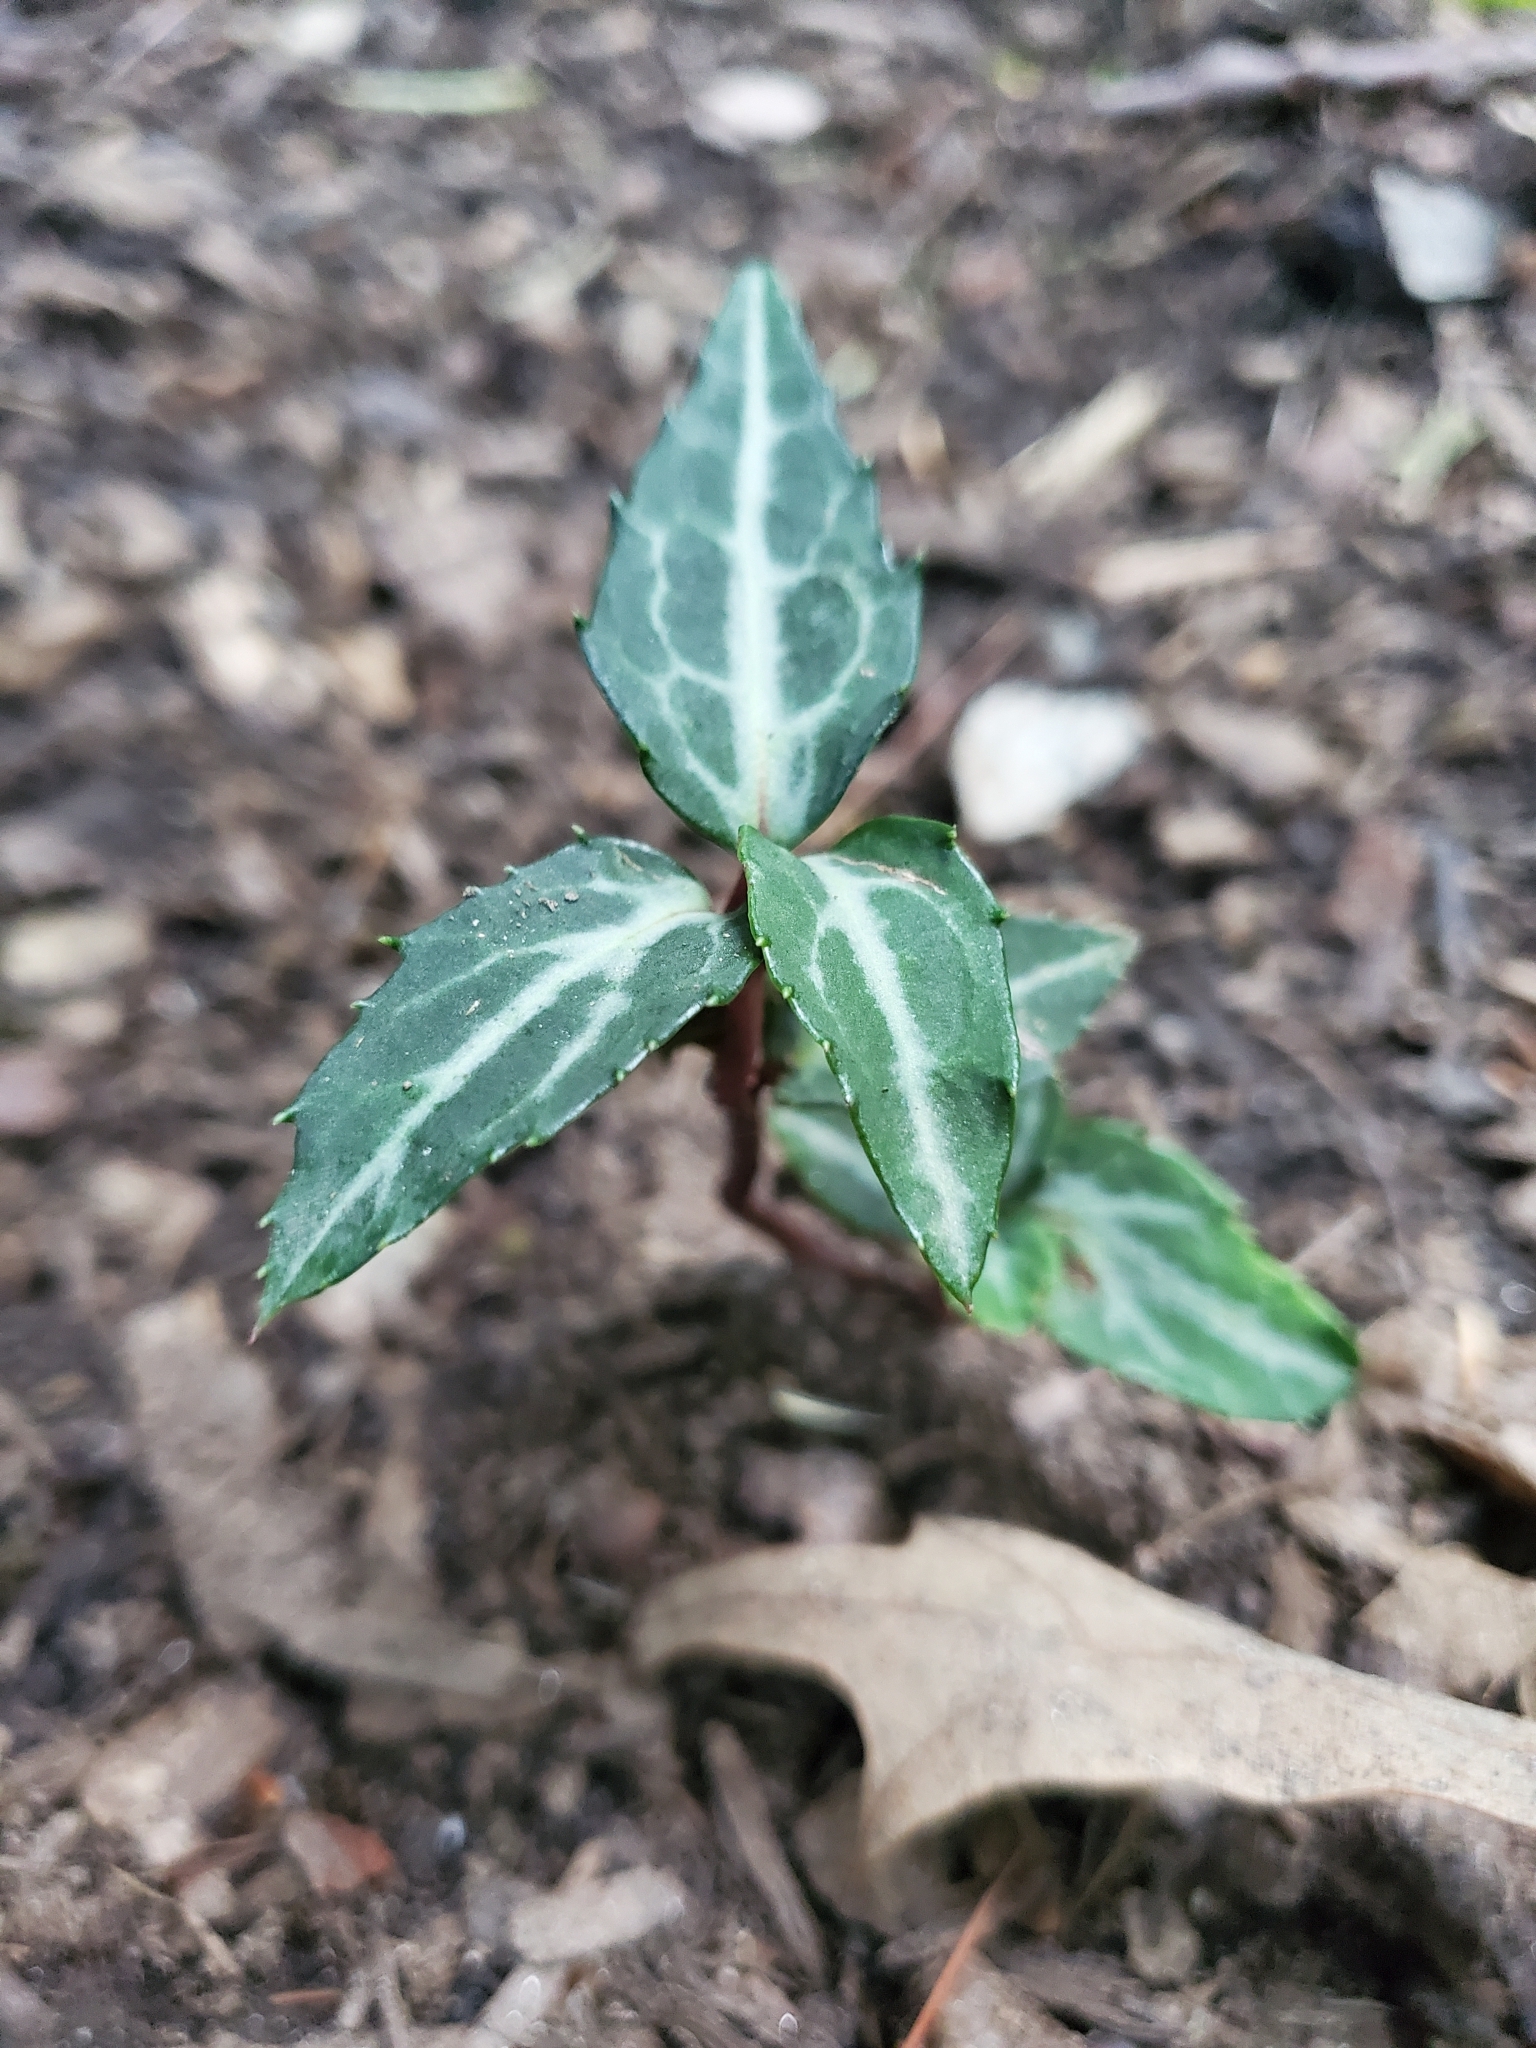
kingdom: Plantae
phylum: Tracheophyta
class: Magnoliopsida
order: Ericales
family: Ericaceae
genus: Chimaphila
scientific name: Chimaphila maculata
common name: Spotted pipsissewa
